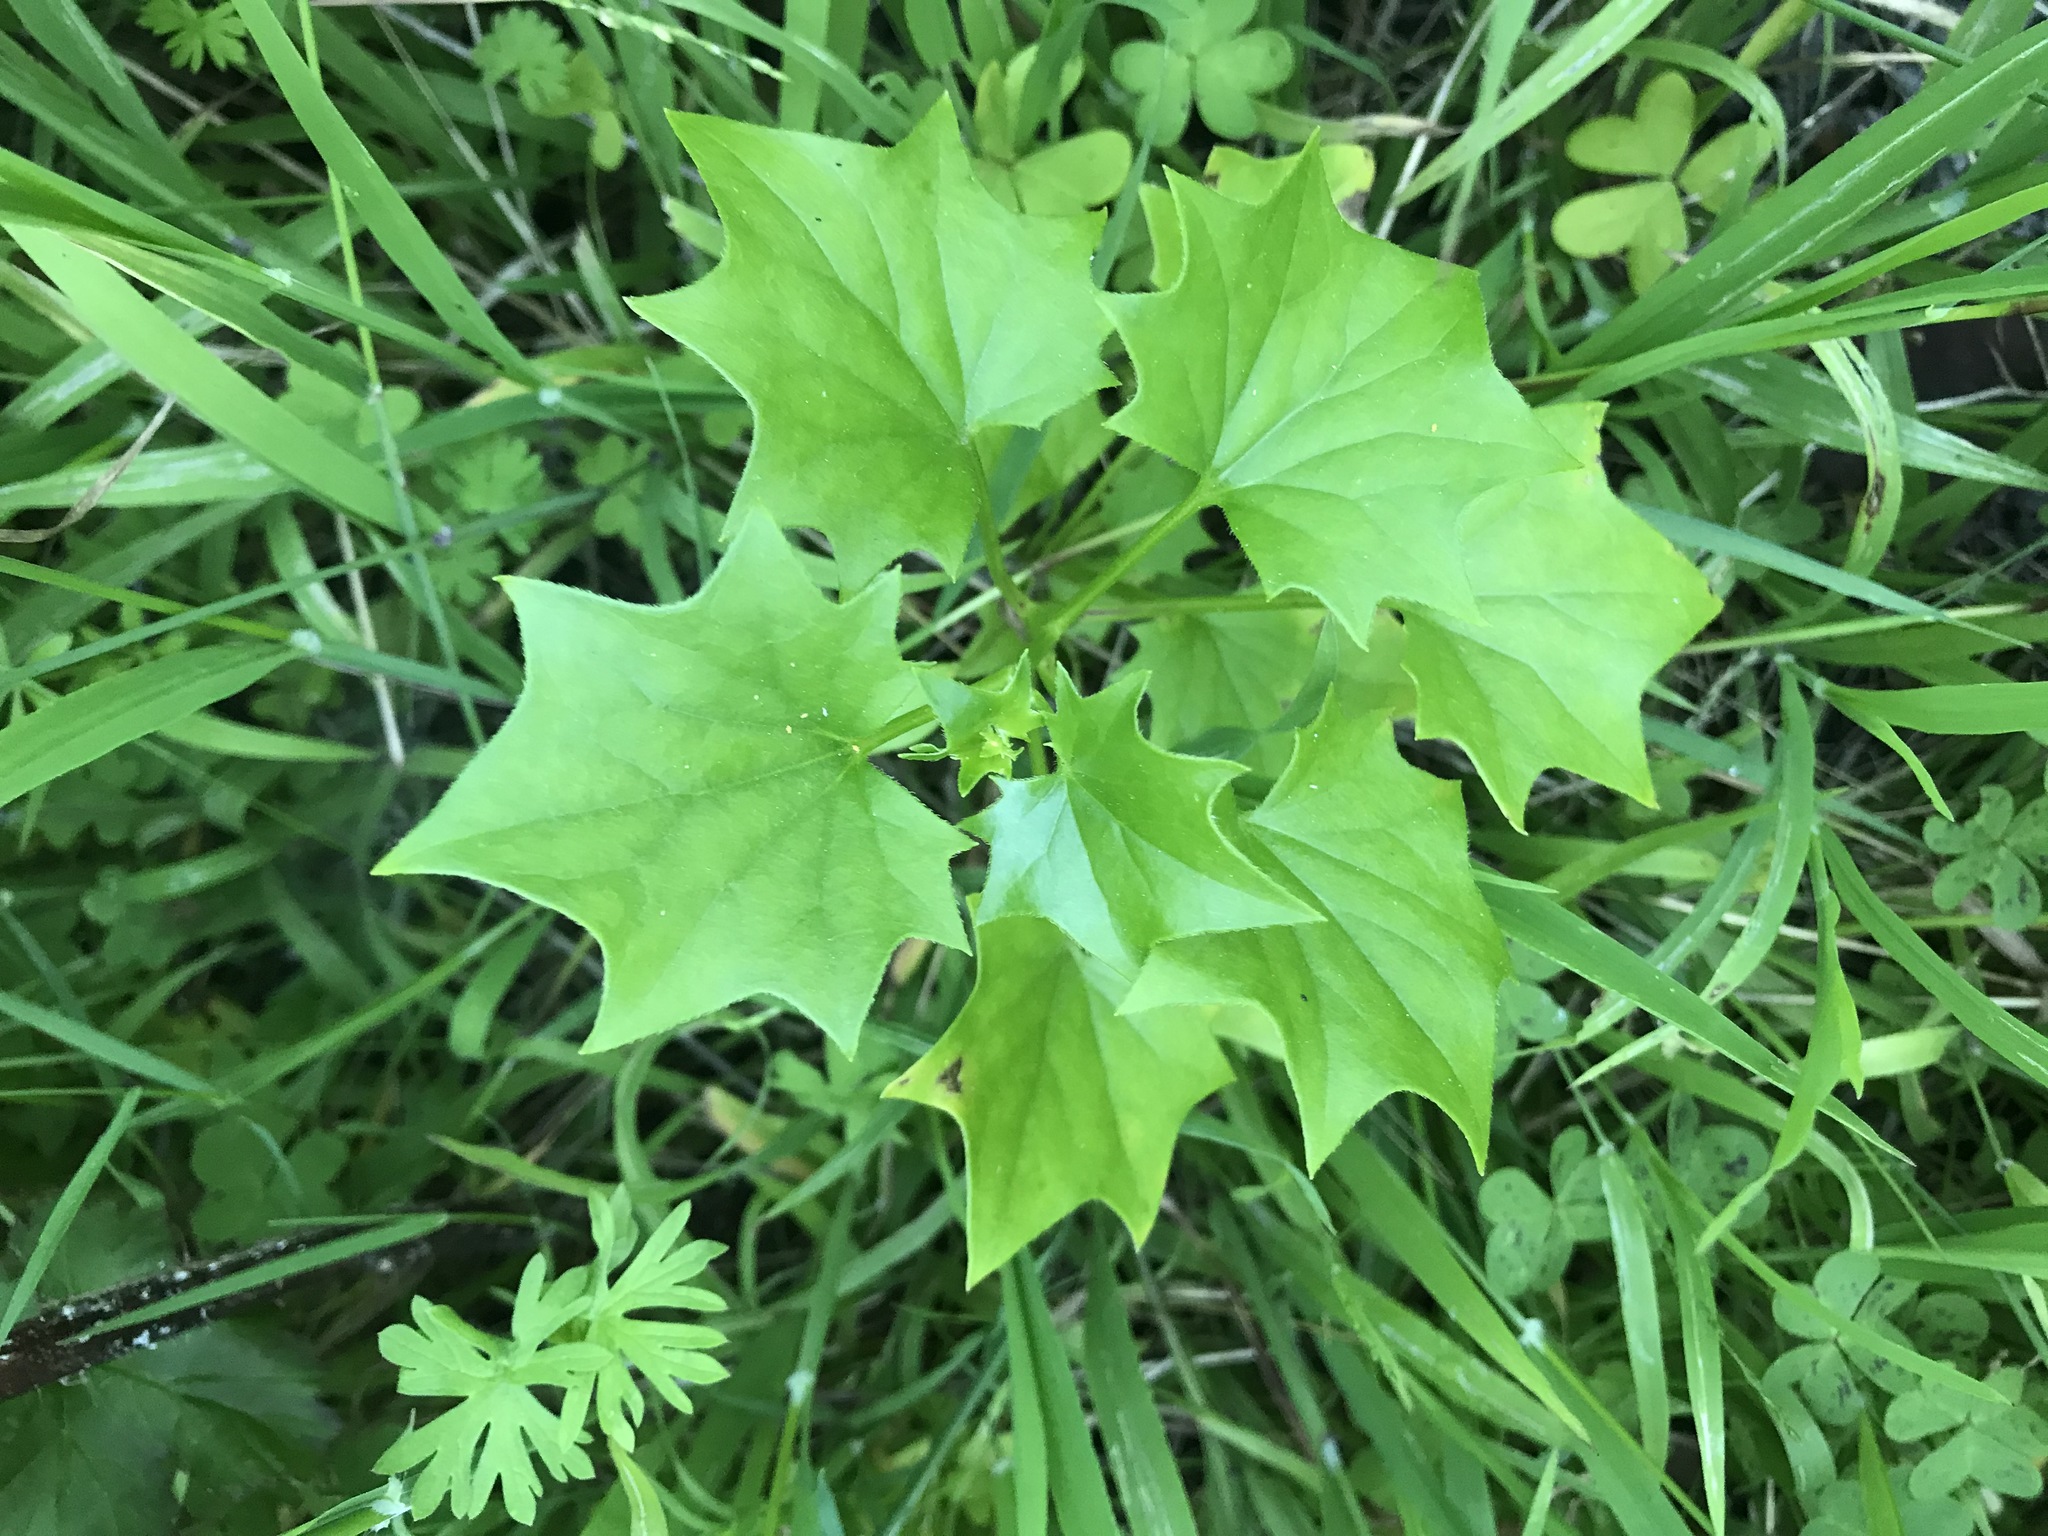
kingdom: Plantae
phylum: Tracheophyta
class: Magnoliopsida
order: Asterales
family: Asteraceae
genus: Delairea
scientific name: Delairea odorata
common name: Cape-ivy
